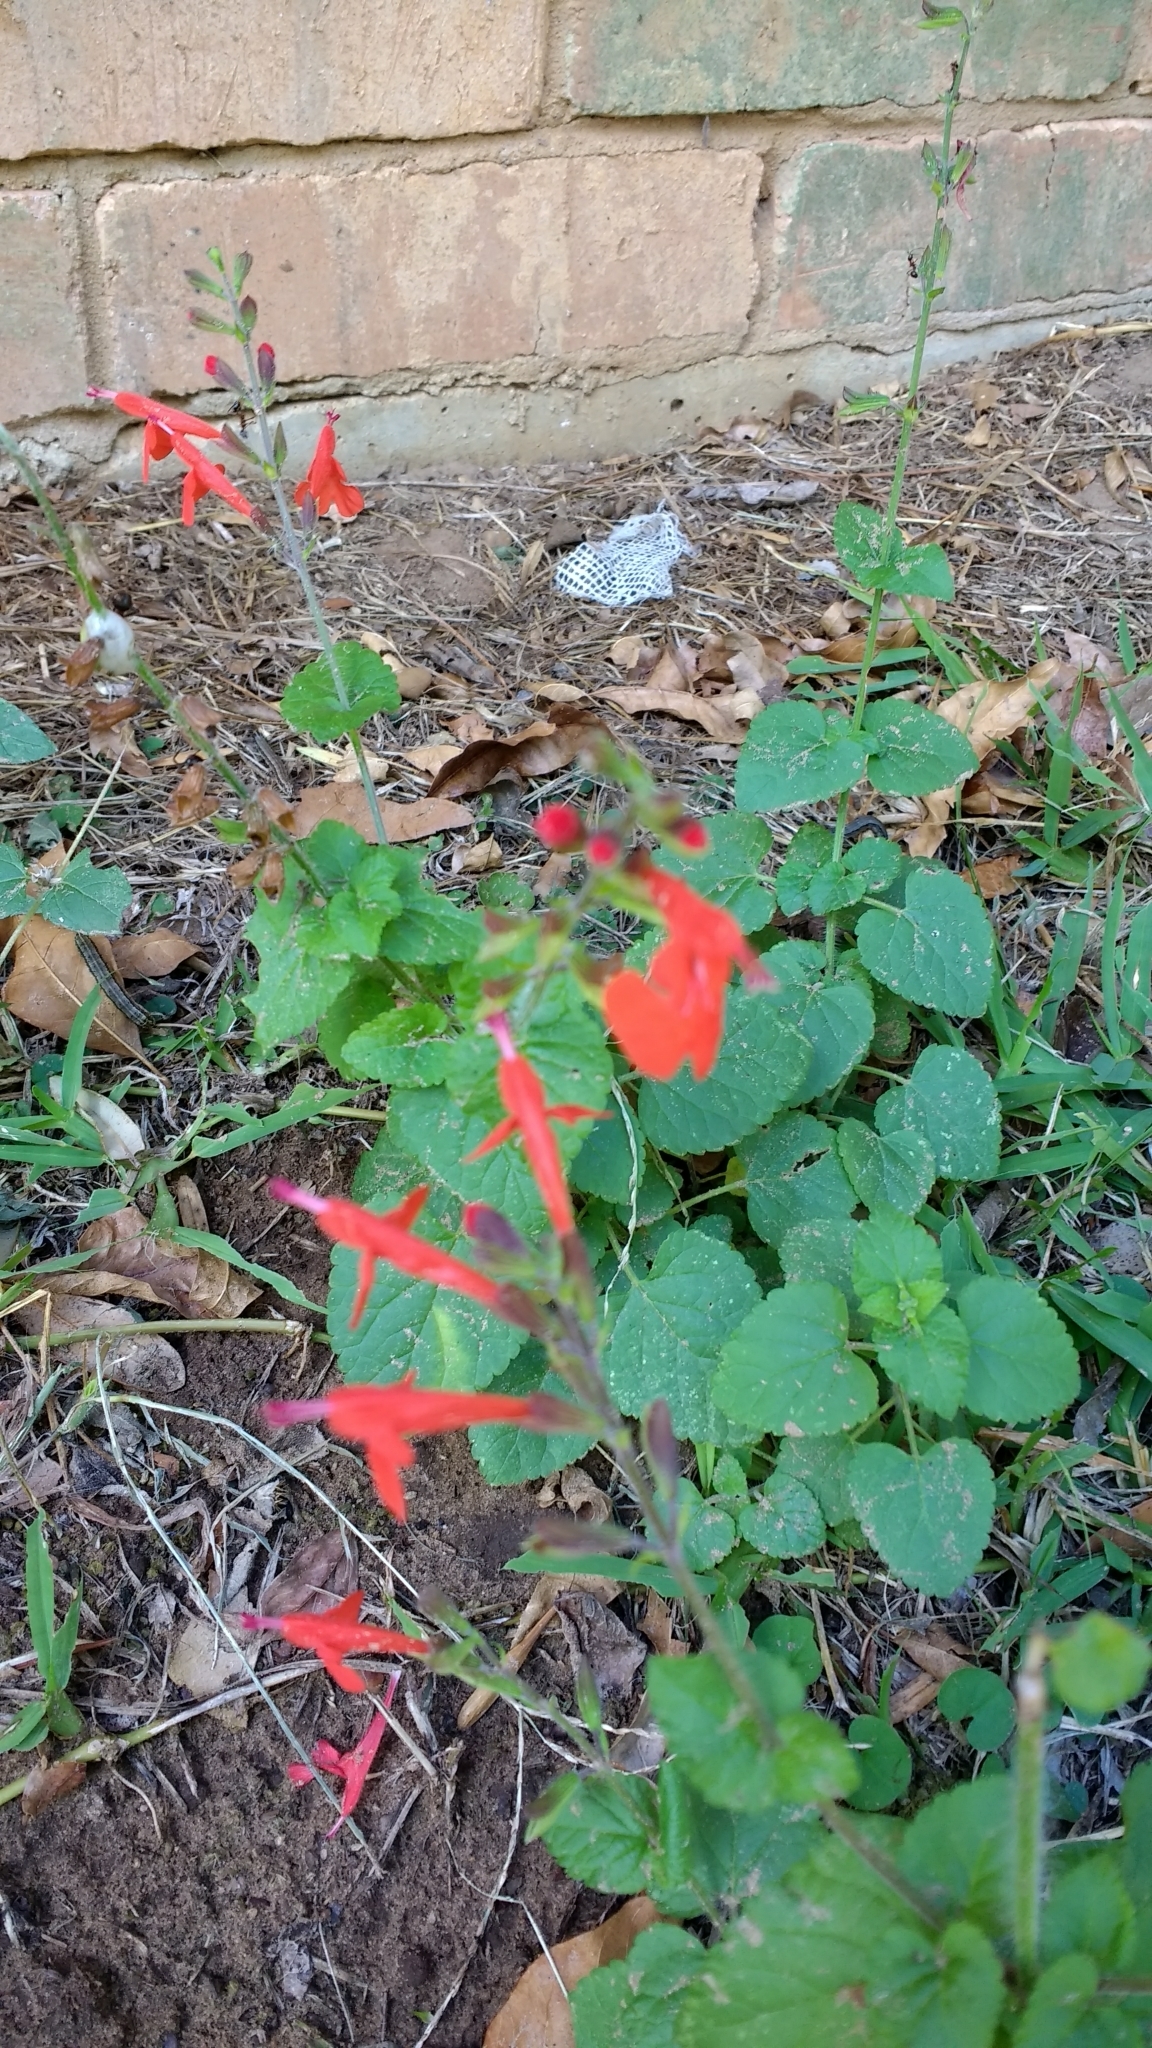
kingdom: Plantae
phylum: Tracheophyta
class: Magnoliopsida
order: Lamiales
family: Lamiaceae
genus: Salvia
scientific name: Salvia coccinea
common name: Blood sage
